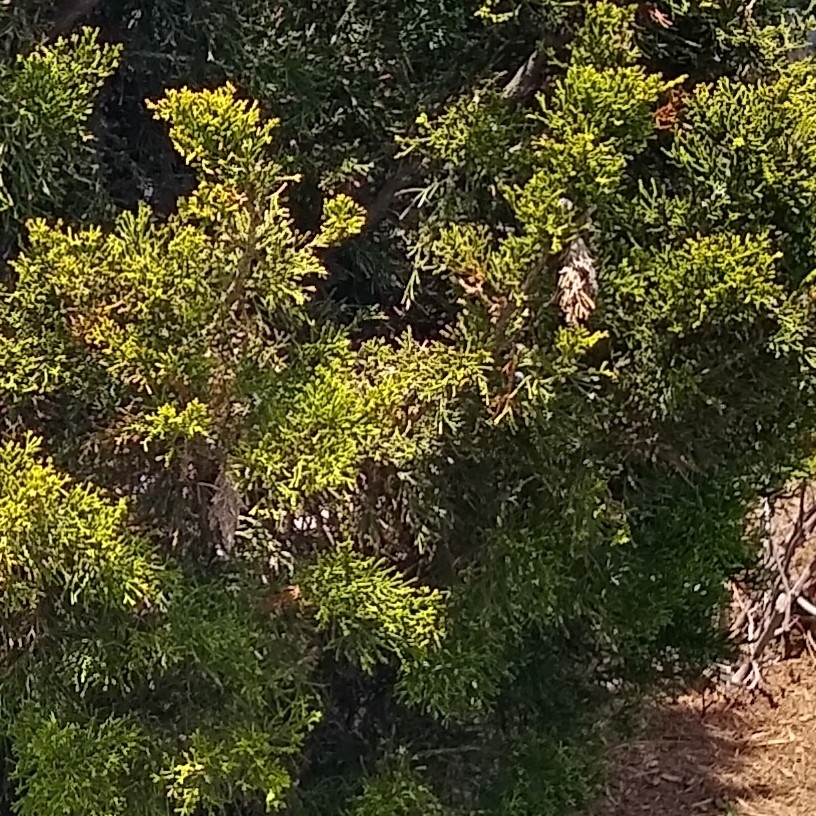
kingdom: Animalia
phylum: Arthropoda
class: Insecta
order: Lepidoptera
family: Psychidae
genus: Thyridopteryx
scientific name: Thyridopteryx ephemeraeformis
